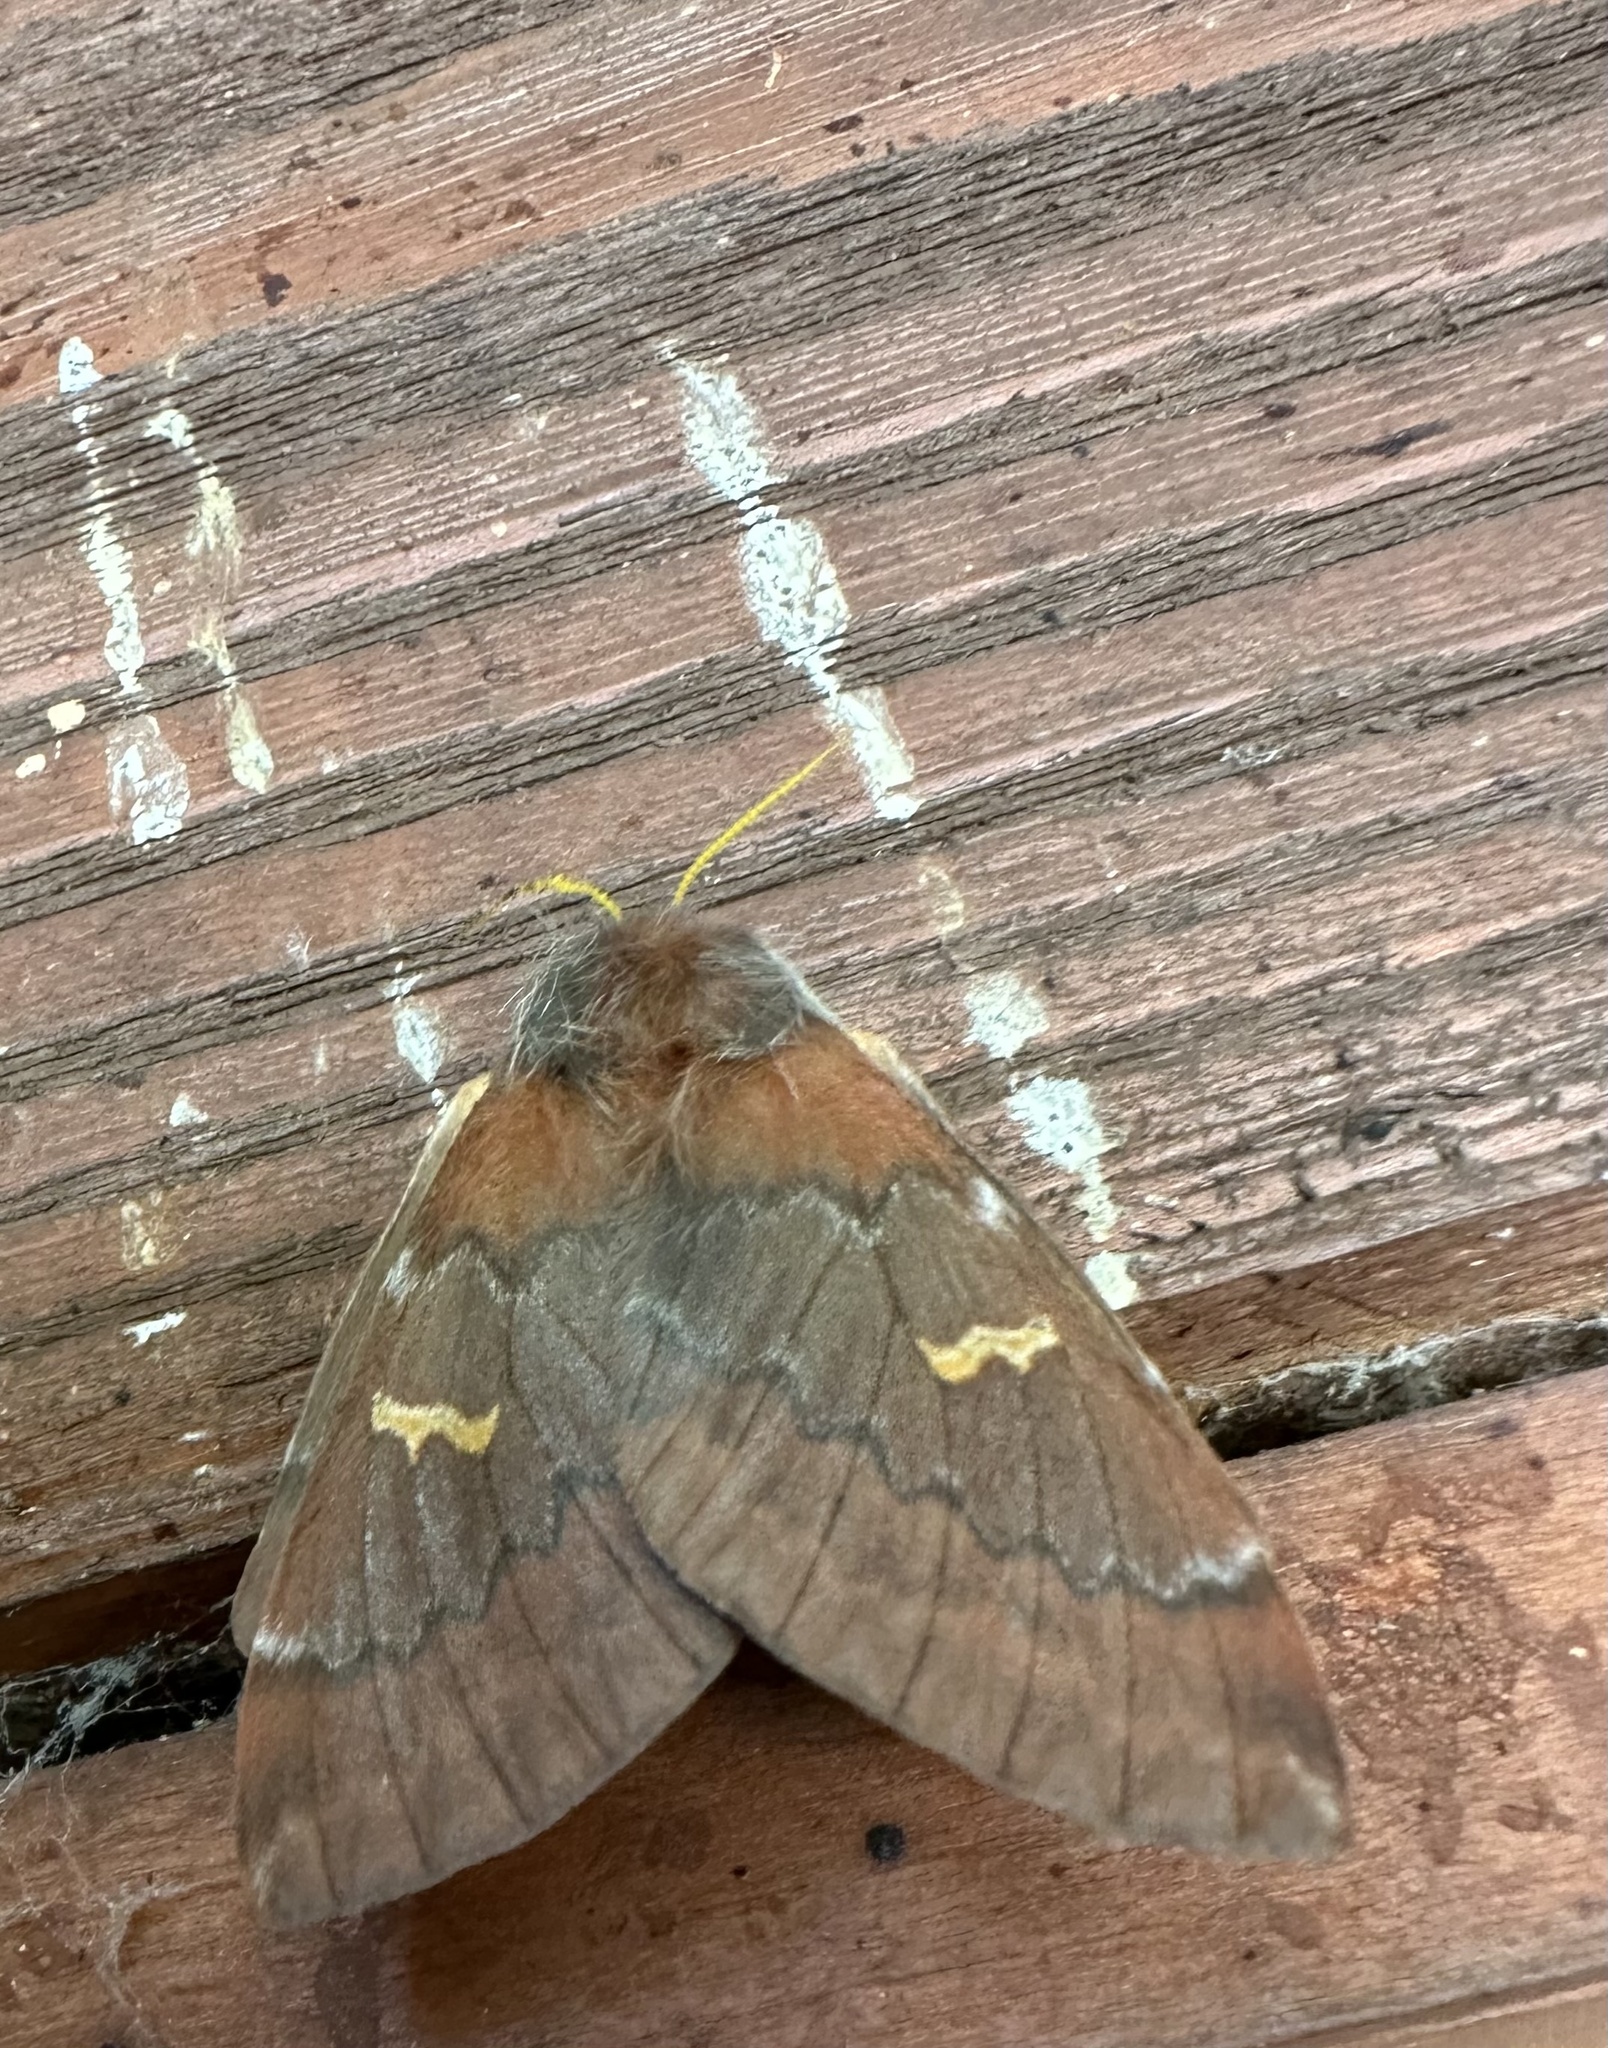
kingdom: Animalia
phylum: Arthropoda
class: Insecta
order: Lepidoptera
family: Saturniidae
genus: Ormiscodes
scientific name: Ormiscodes joiceyi
